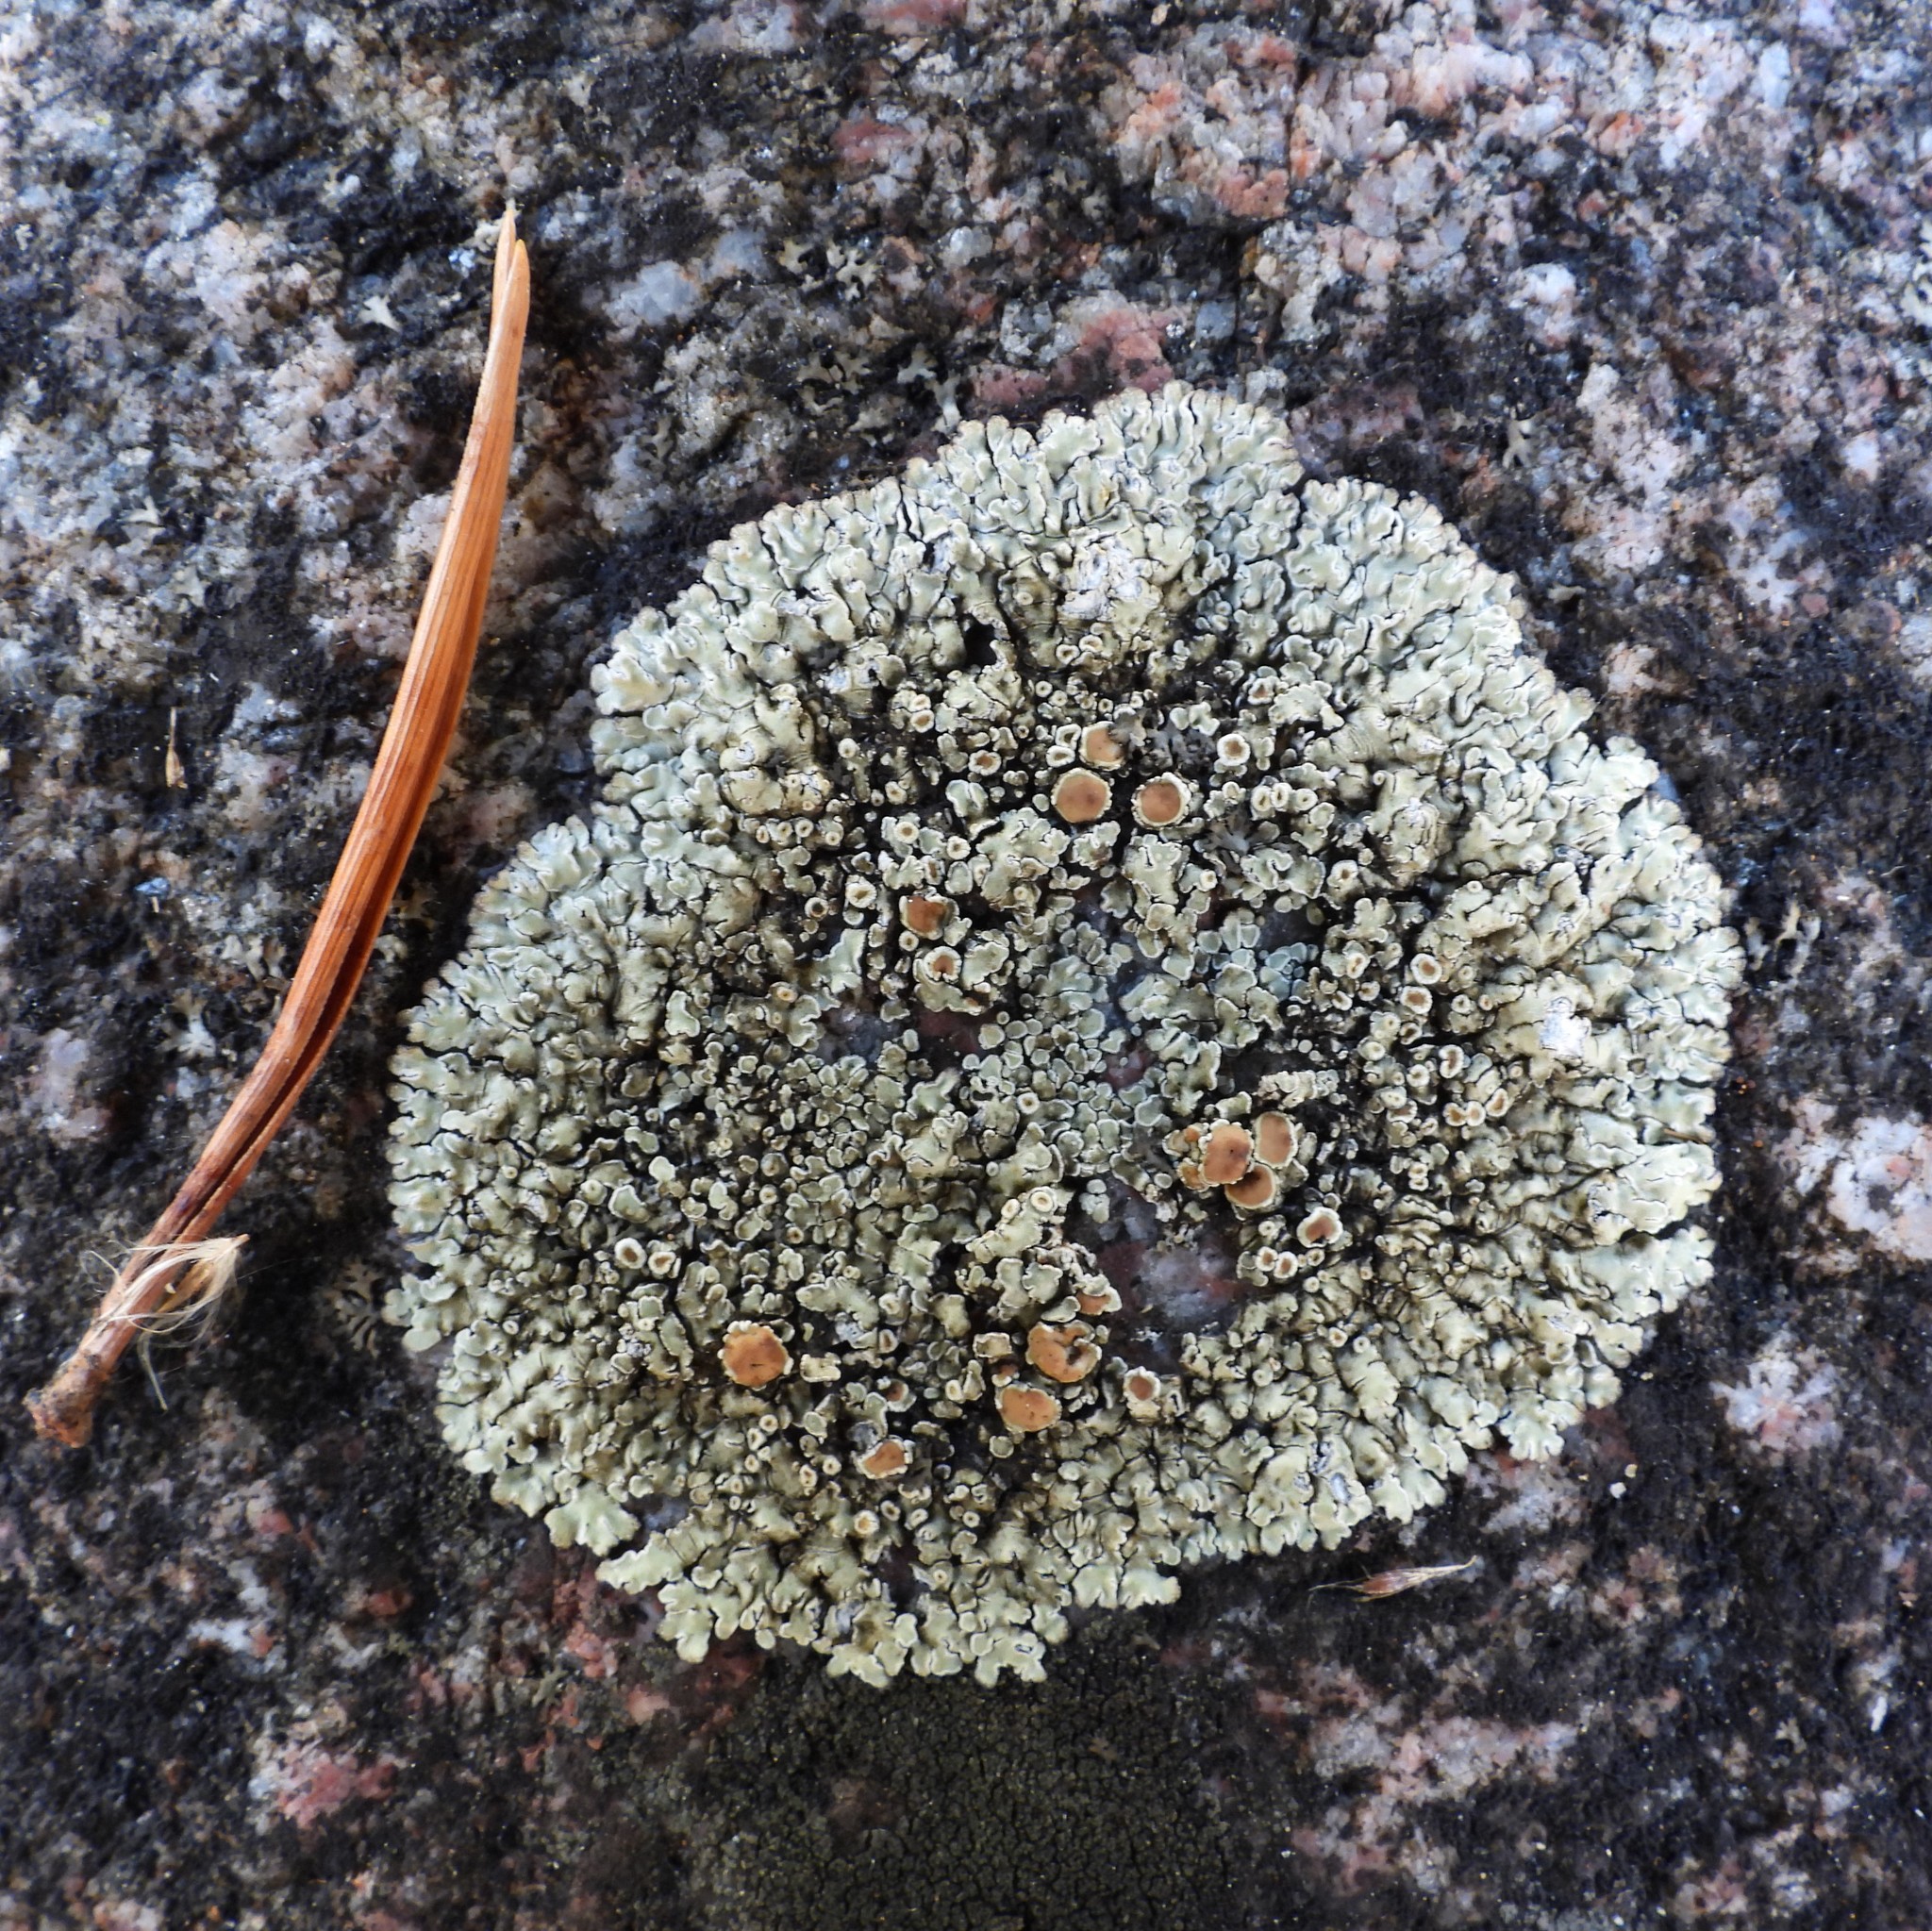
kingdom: Fungi
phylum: Ascomycota
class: Lecanoromycetes
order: Lecanorales
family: Lecanoraceae
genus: Protoparmeliopsis
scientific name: Protoparmeliopsis muralis
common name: Stonewall rim lichen
